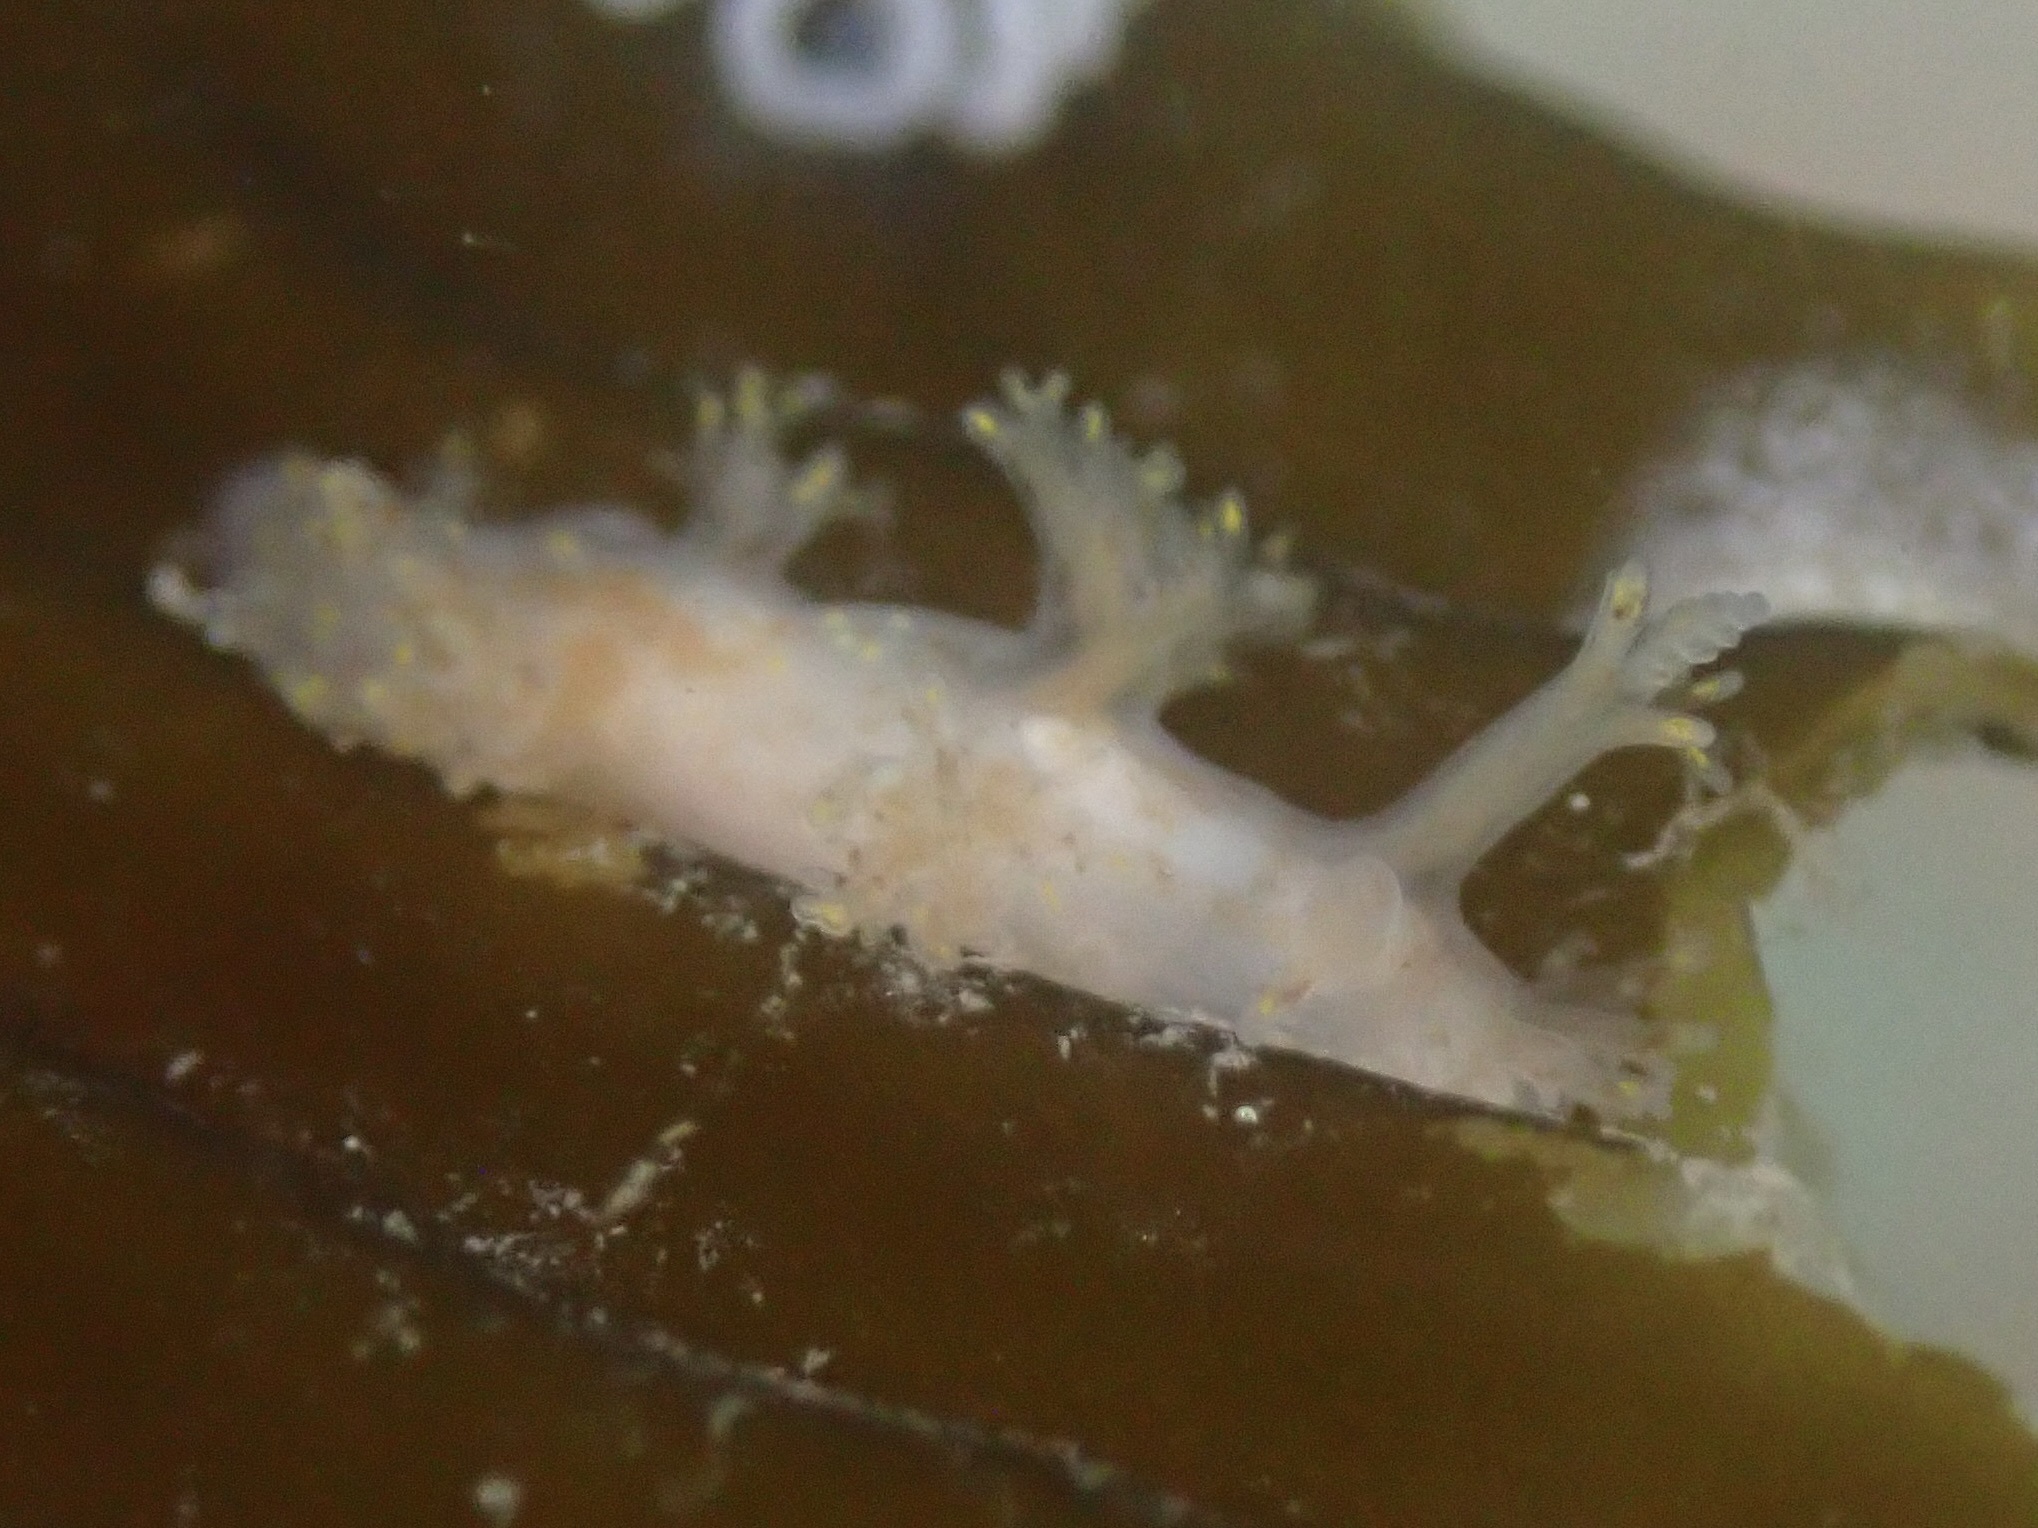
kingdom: Animalia
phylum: Mollusca
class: Gastropoda
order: Nudibranchia
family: Dendronotidae
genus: Dendronotus
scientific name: Dendronotus venustus
